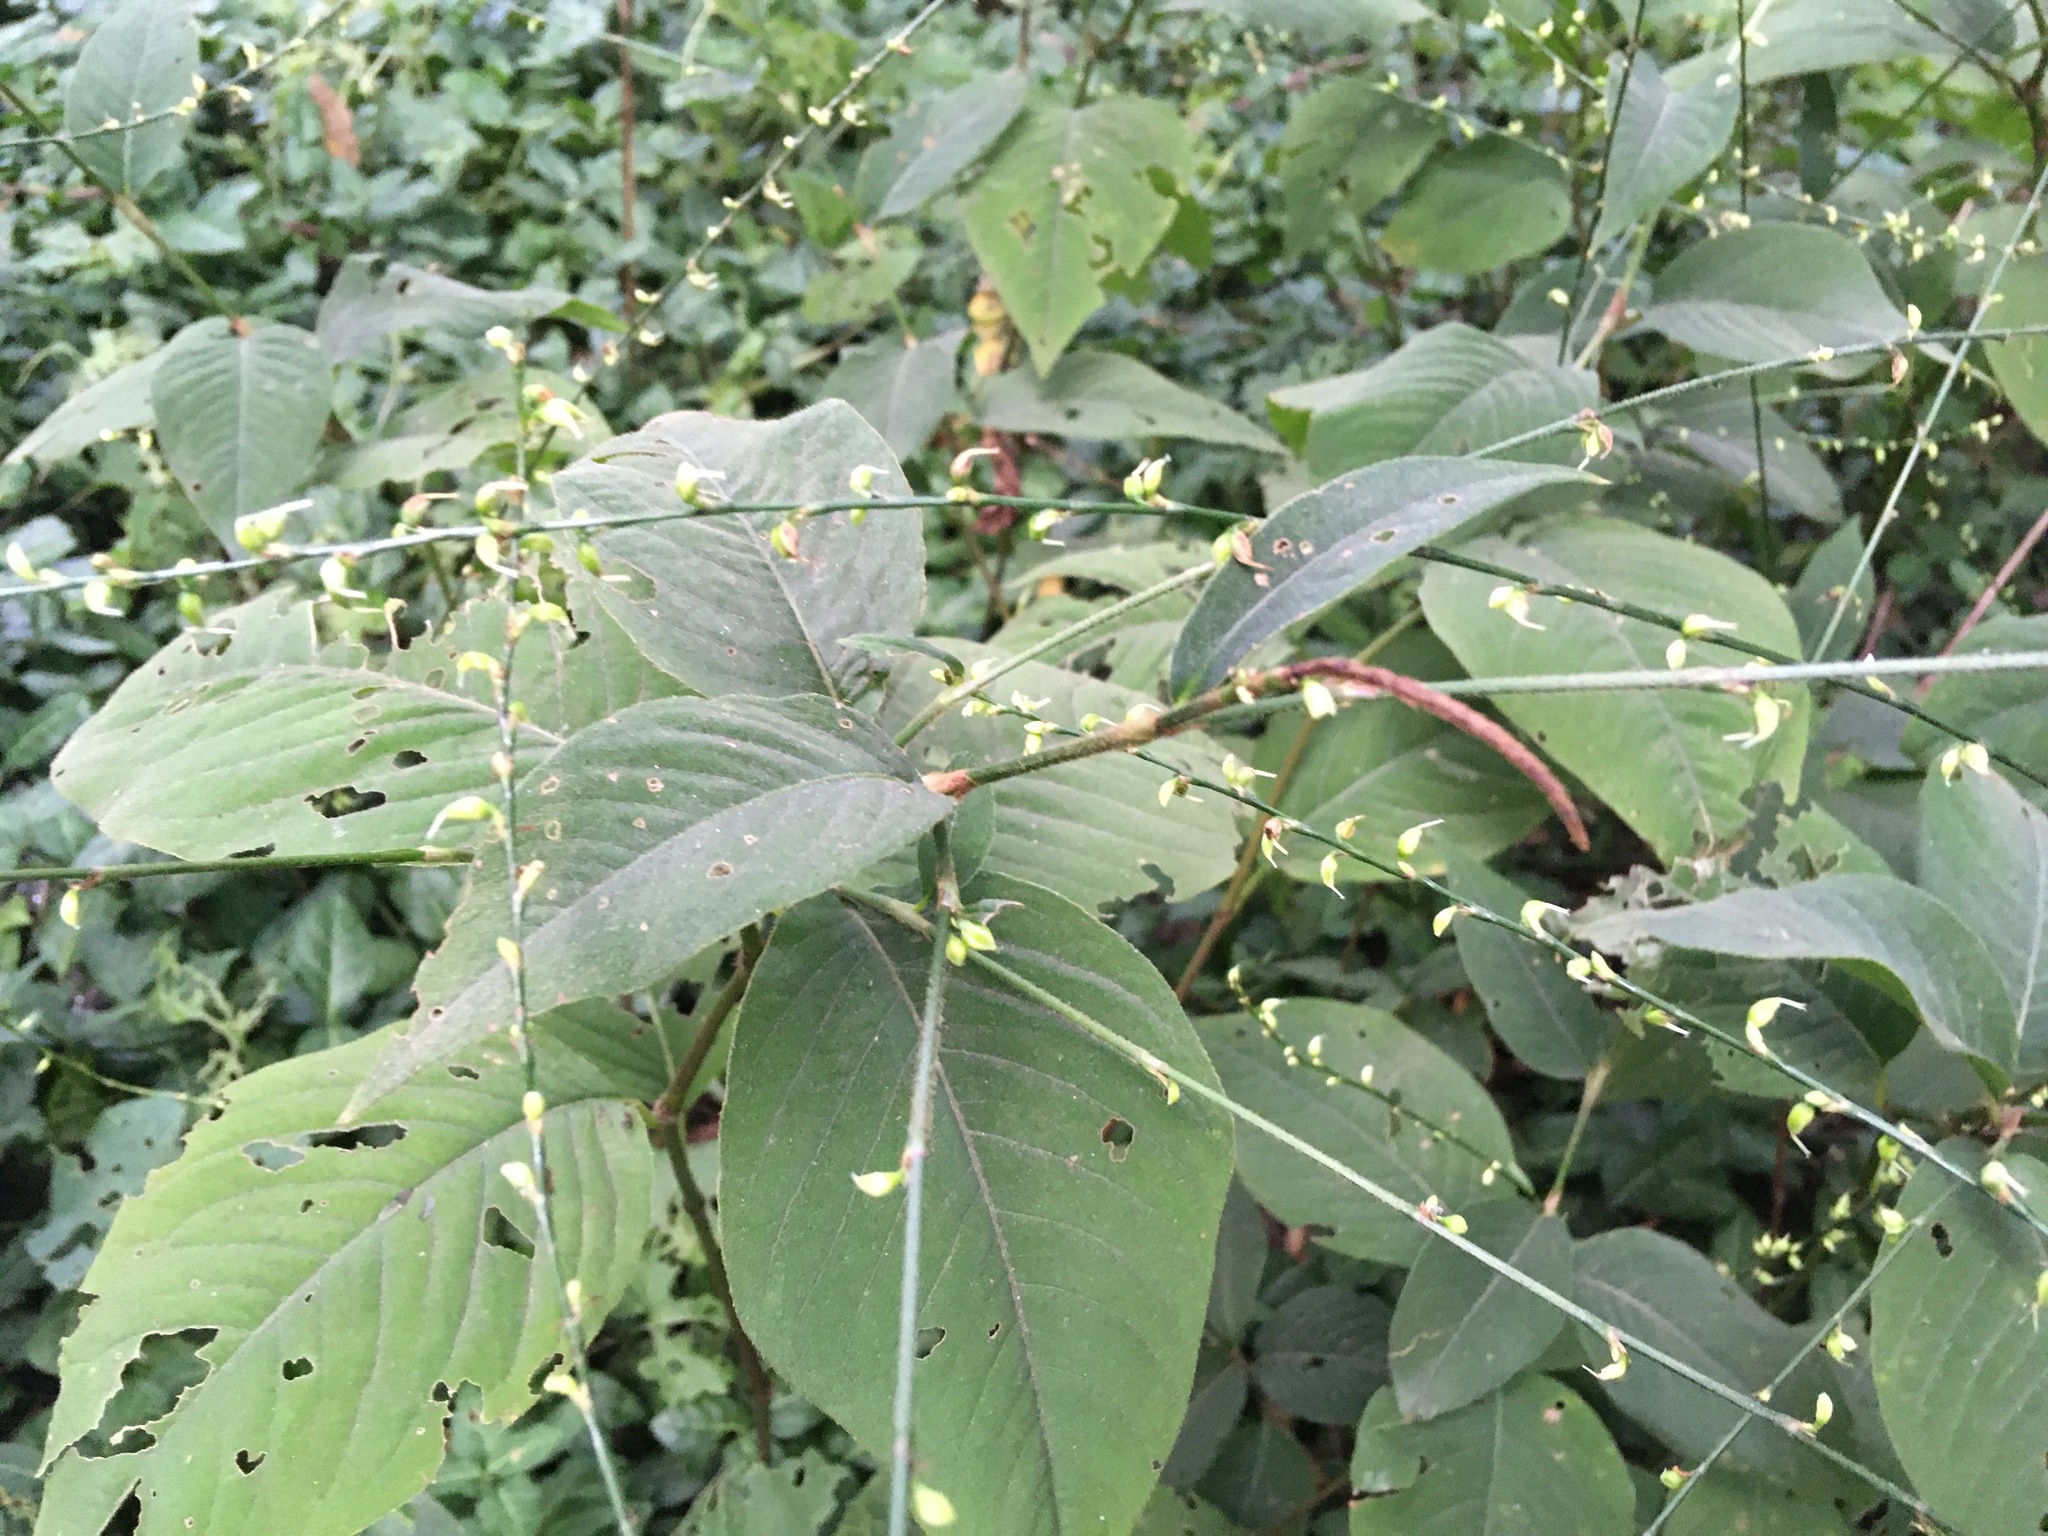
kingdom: Plantae
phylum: Tracheophyta
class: Magnoliopsida
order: Caryophyllales
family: Polygonaceae
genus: Persicaria
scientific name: Persicaria virginiana
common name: Jumpseed
